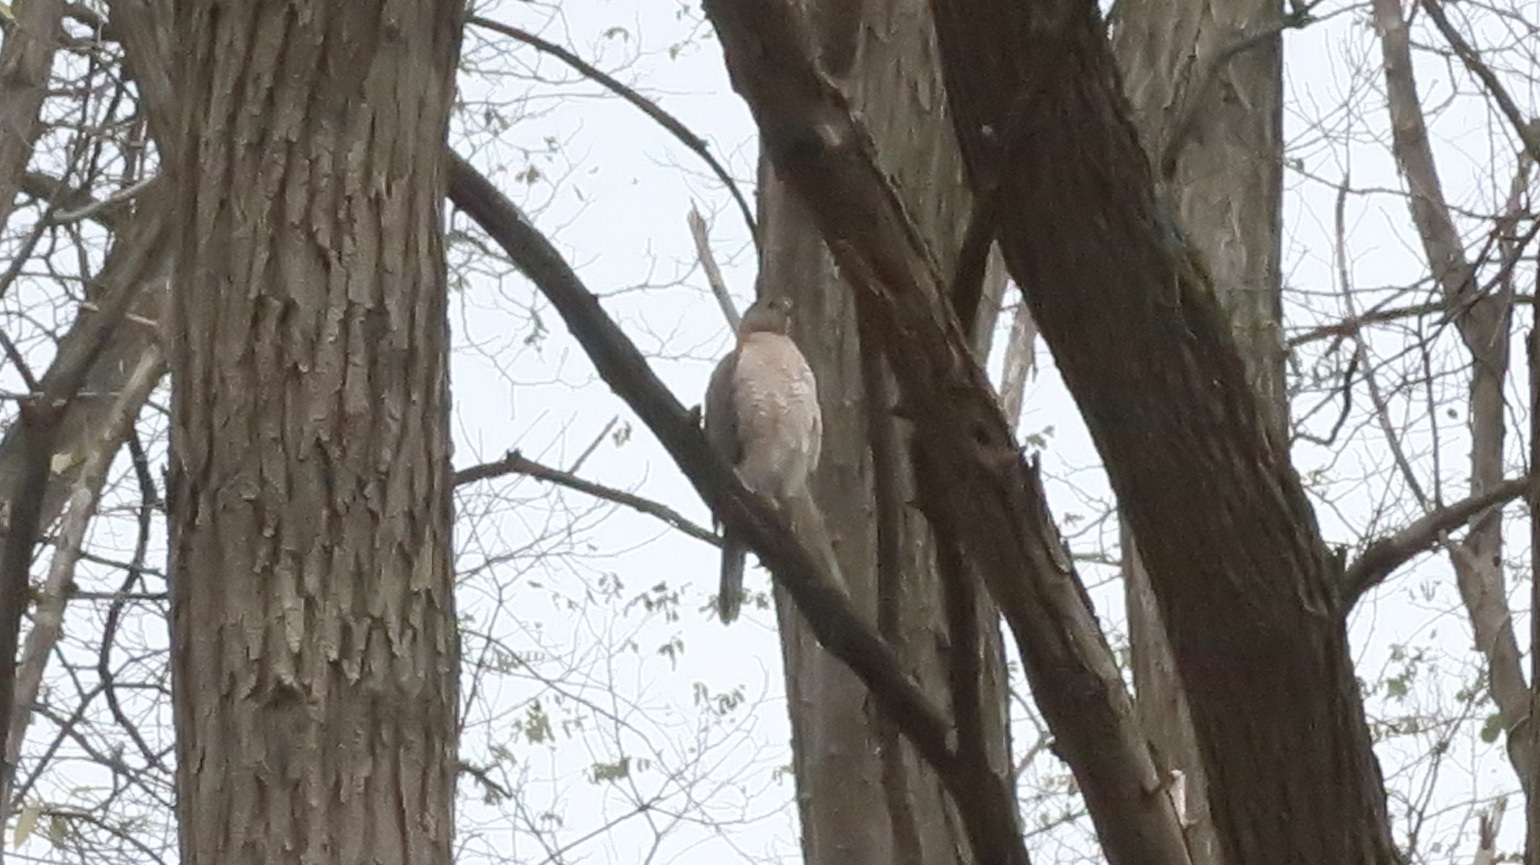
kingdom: Animalia
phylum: Chordata
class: Aves
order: Accipitriformes
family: Accipitridae
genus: Accipiter
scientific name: Accipiter cooperii
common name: Cooper's hawk
